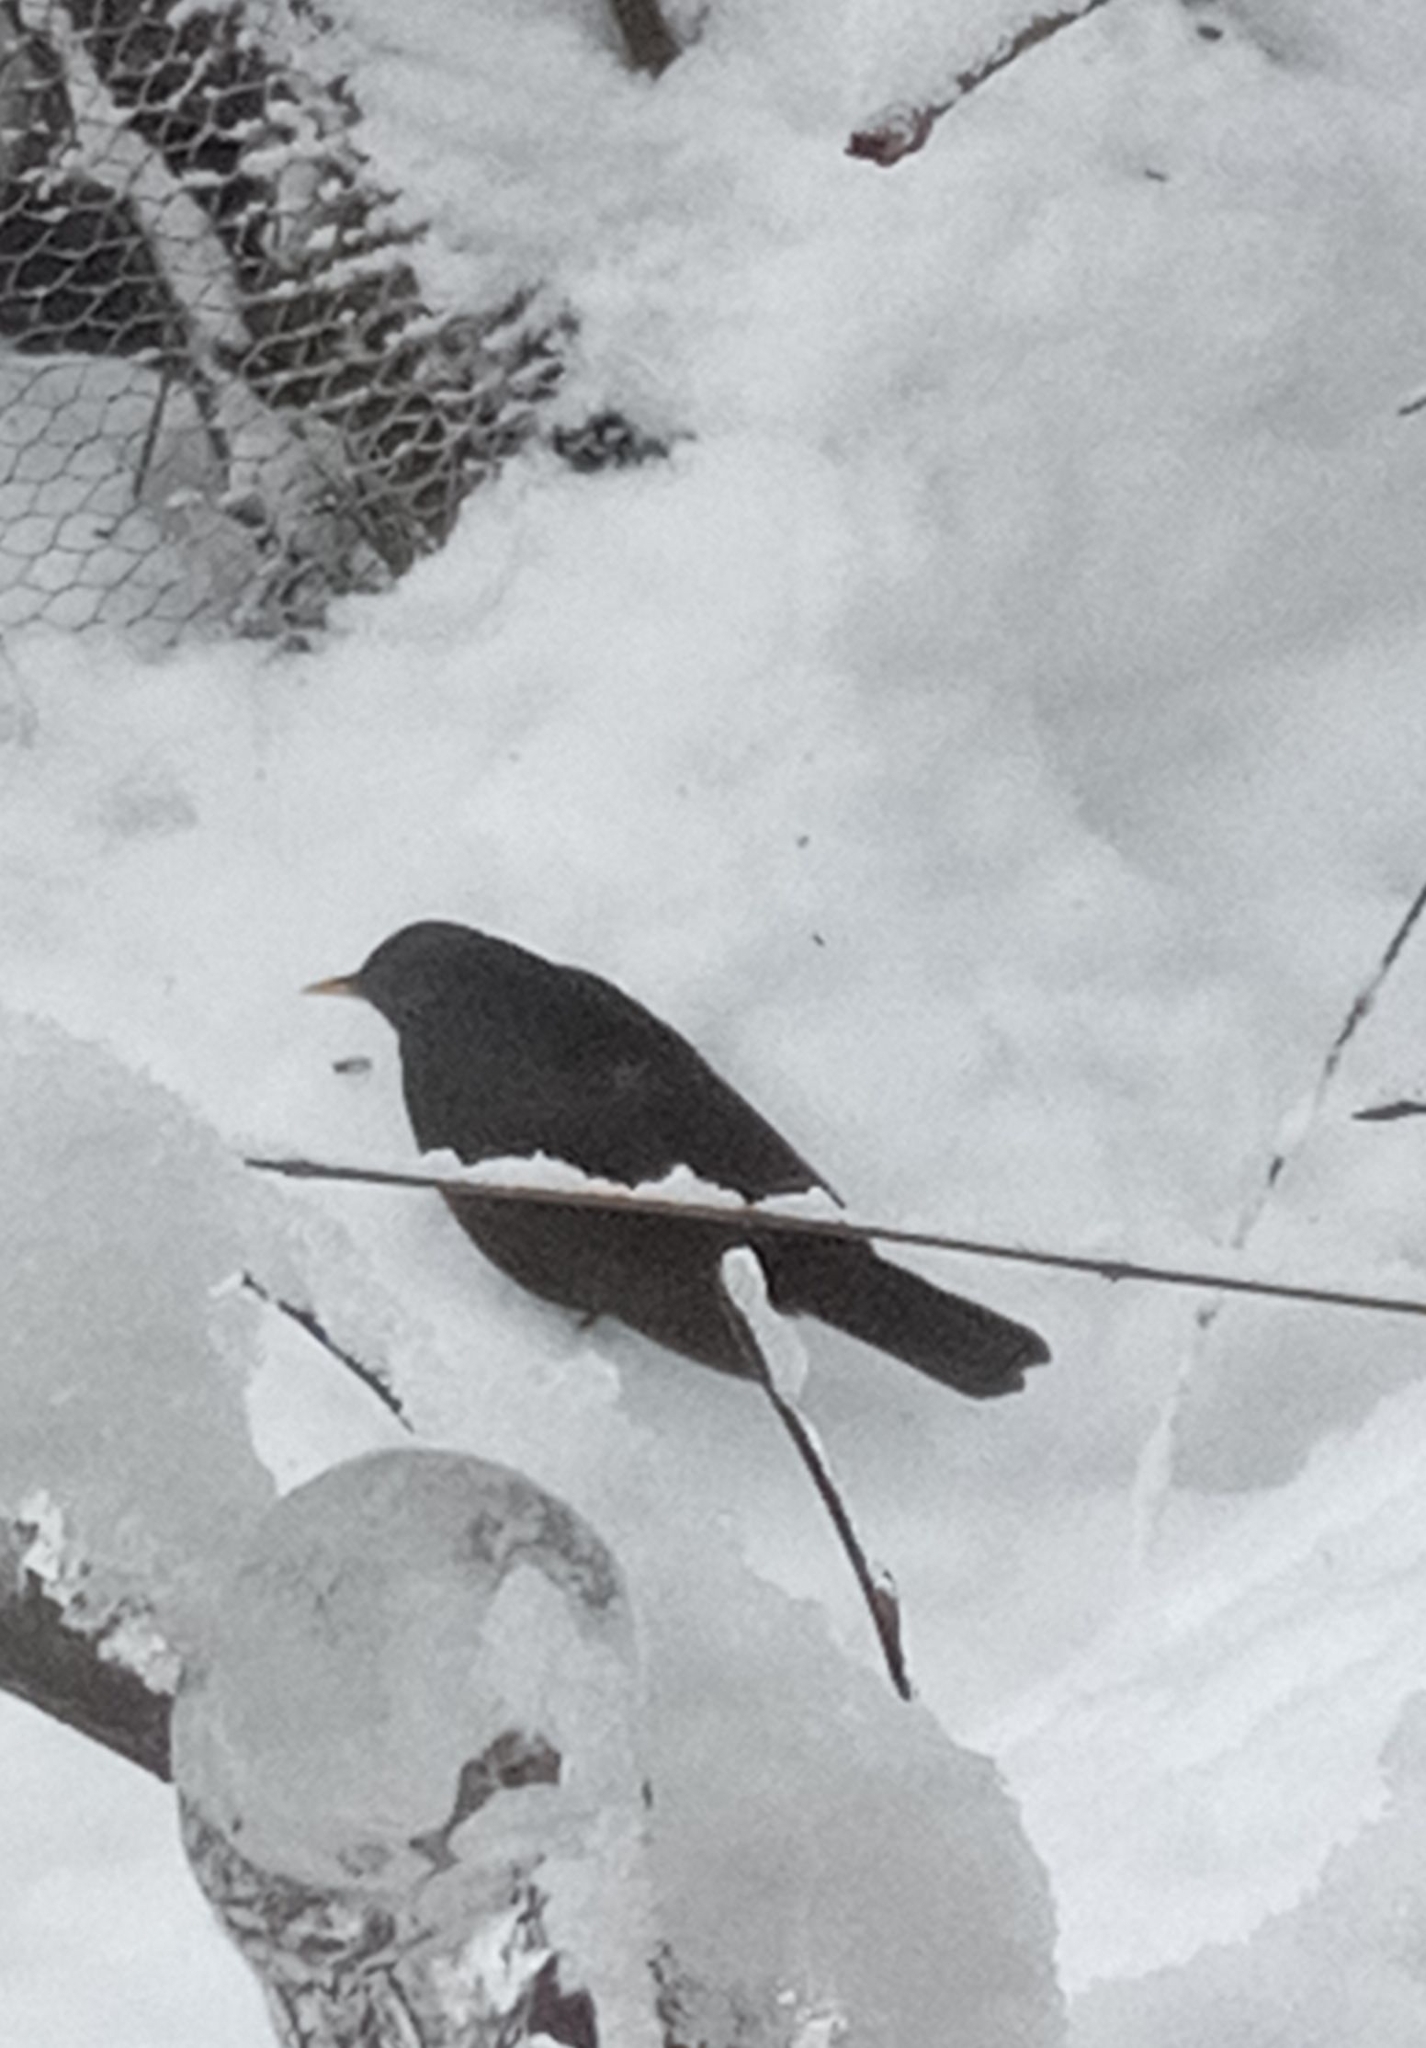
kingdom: Animalia
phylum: Chordata
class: Aves
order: Passeriformes
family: Turdidae
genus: Turdus
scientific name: Turdus merula
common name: Common blackbird
